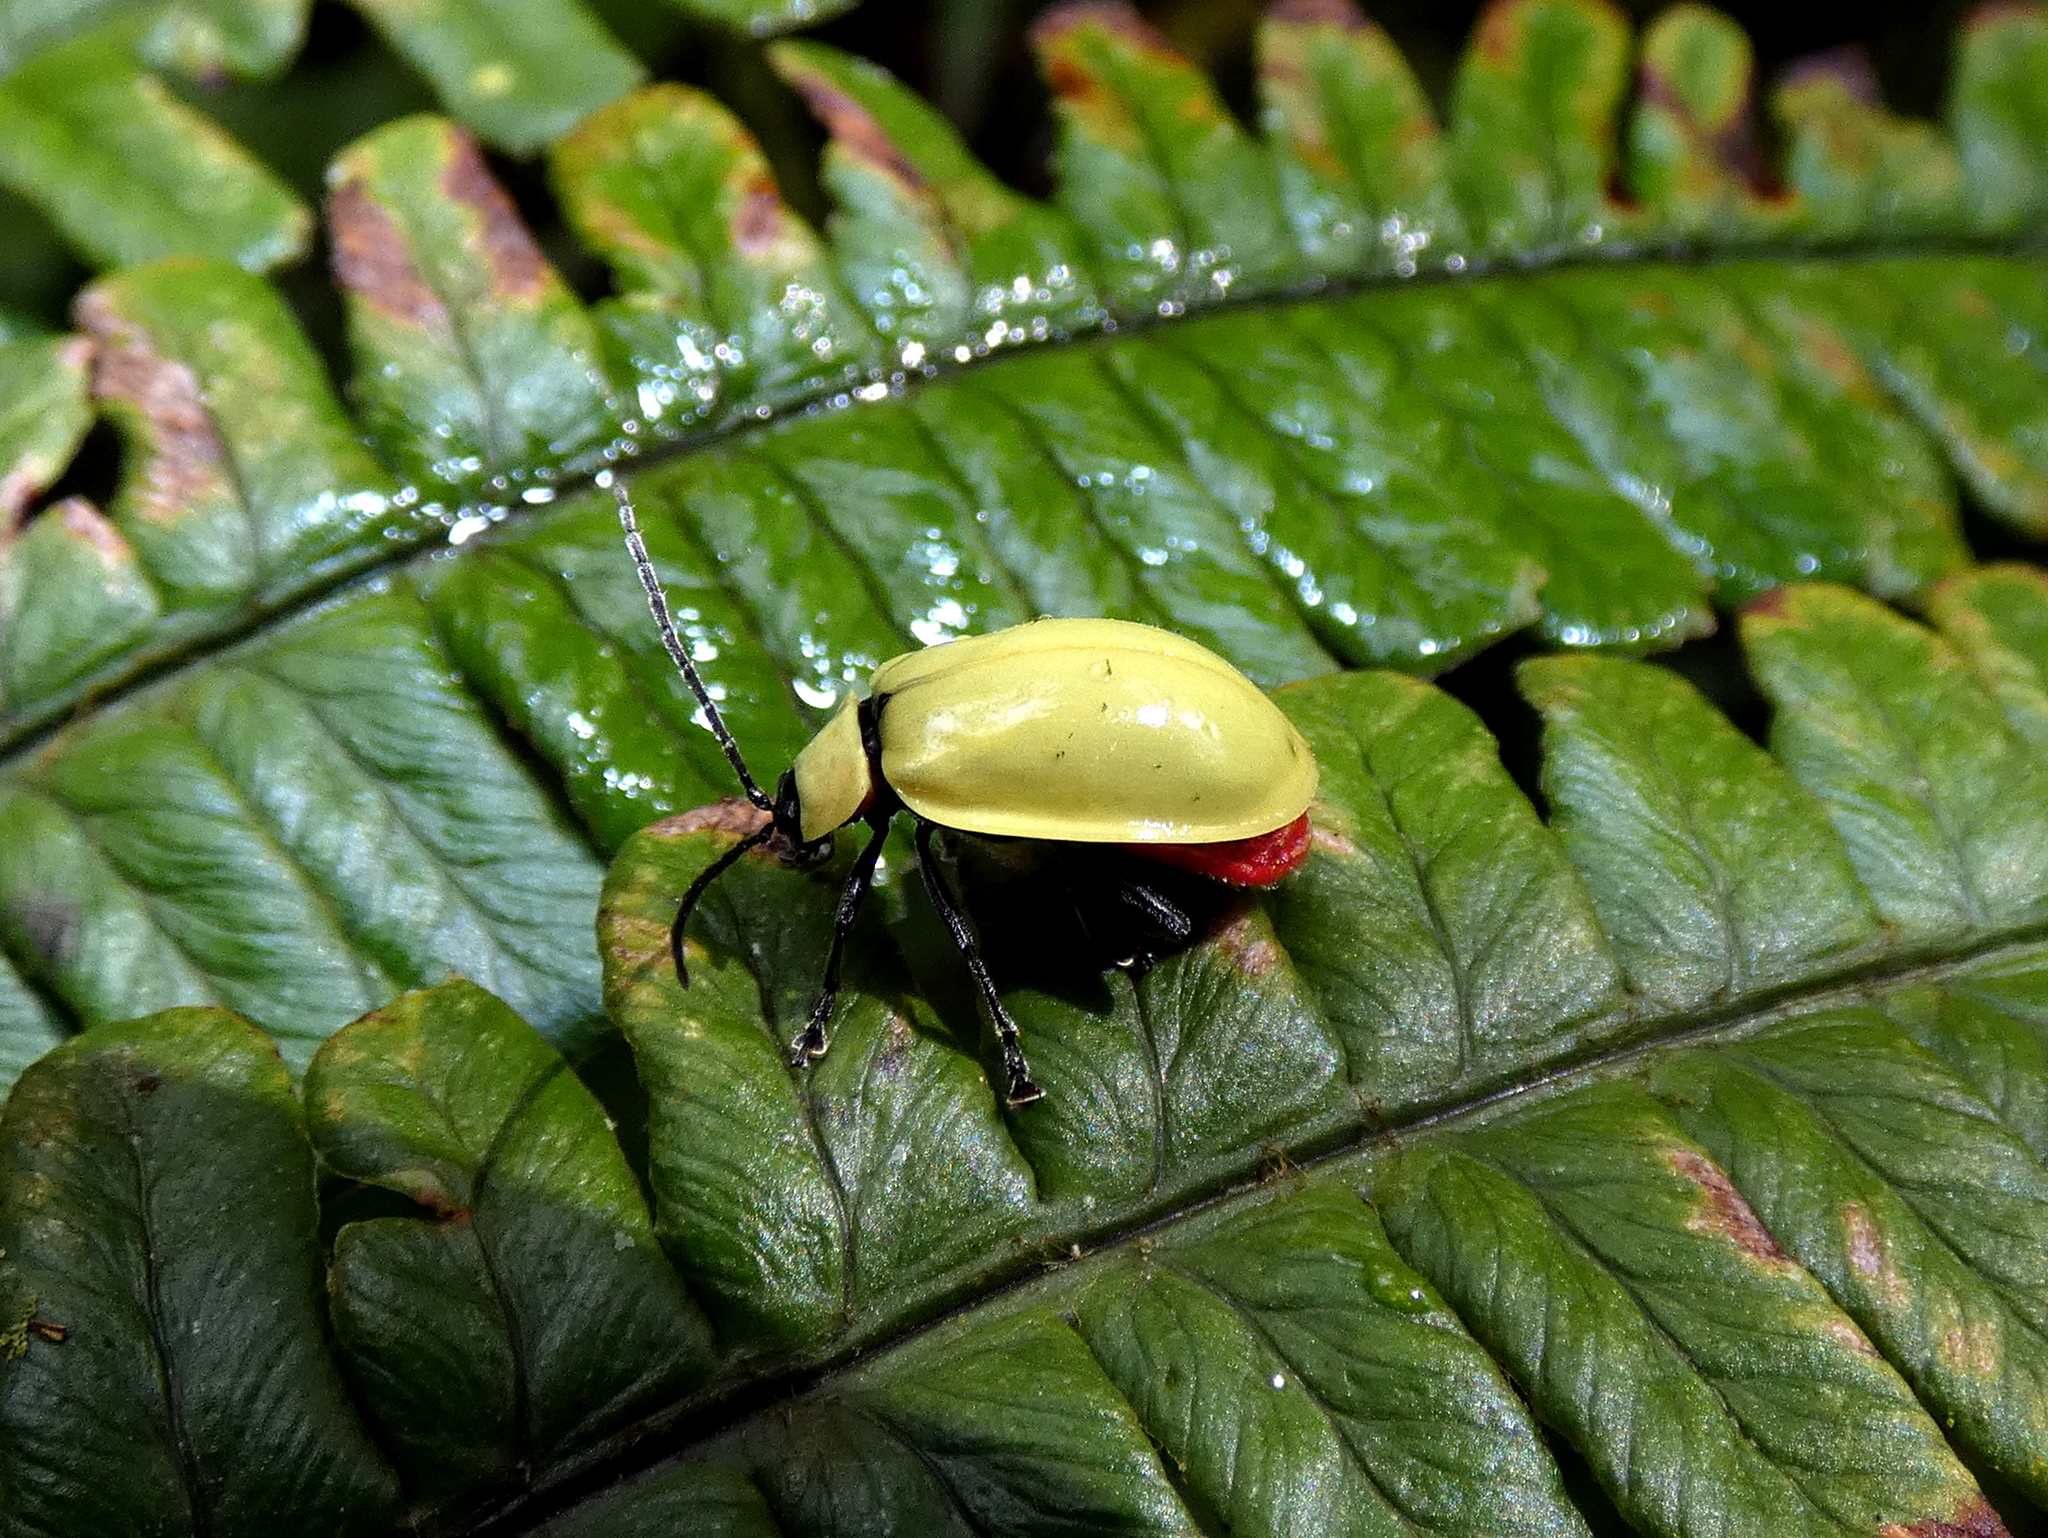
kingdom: Animalia
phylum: Arthropoda
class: Insecta
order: Coleoptera
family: Chrysomelidae
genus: Asphaera
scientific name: Asphaera
